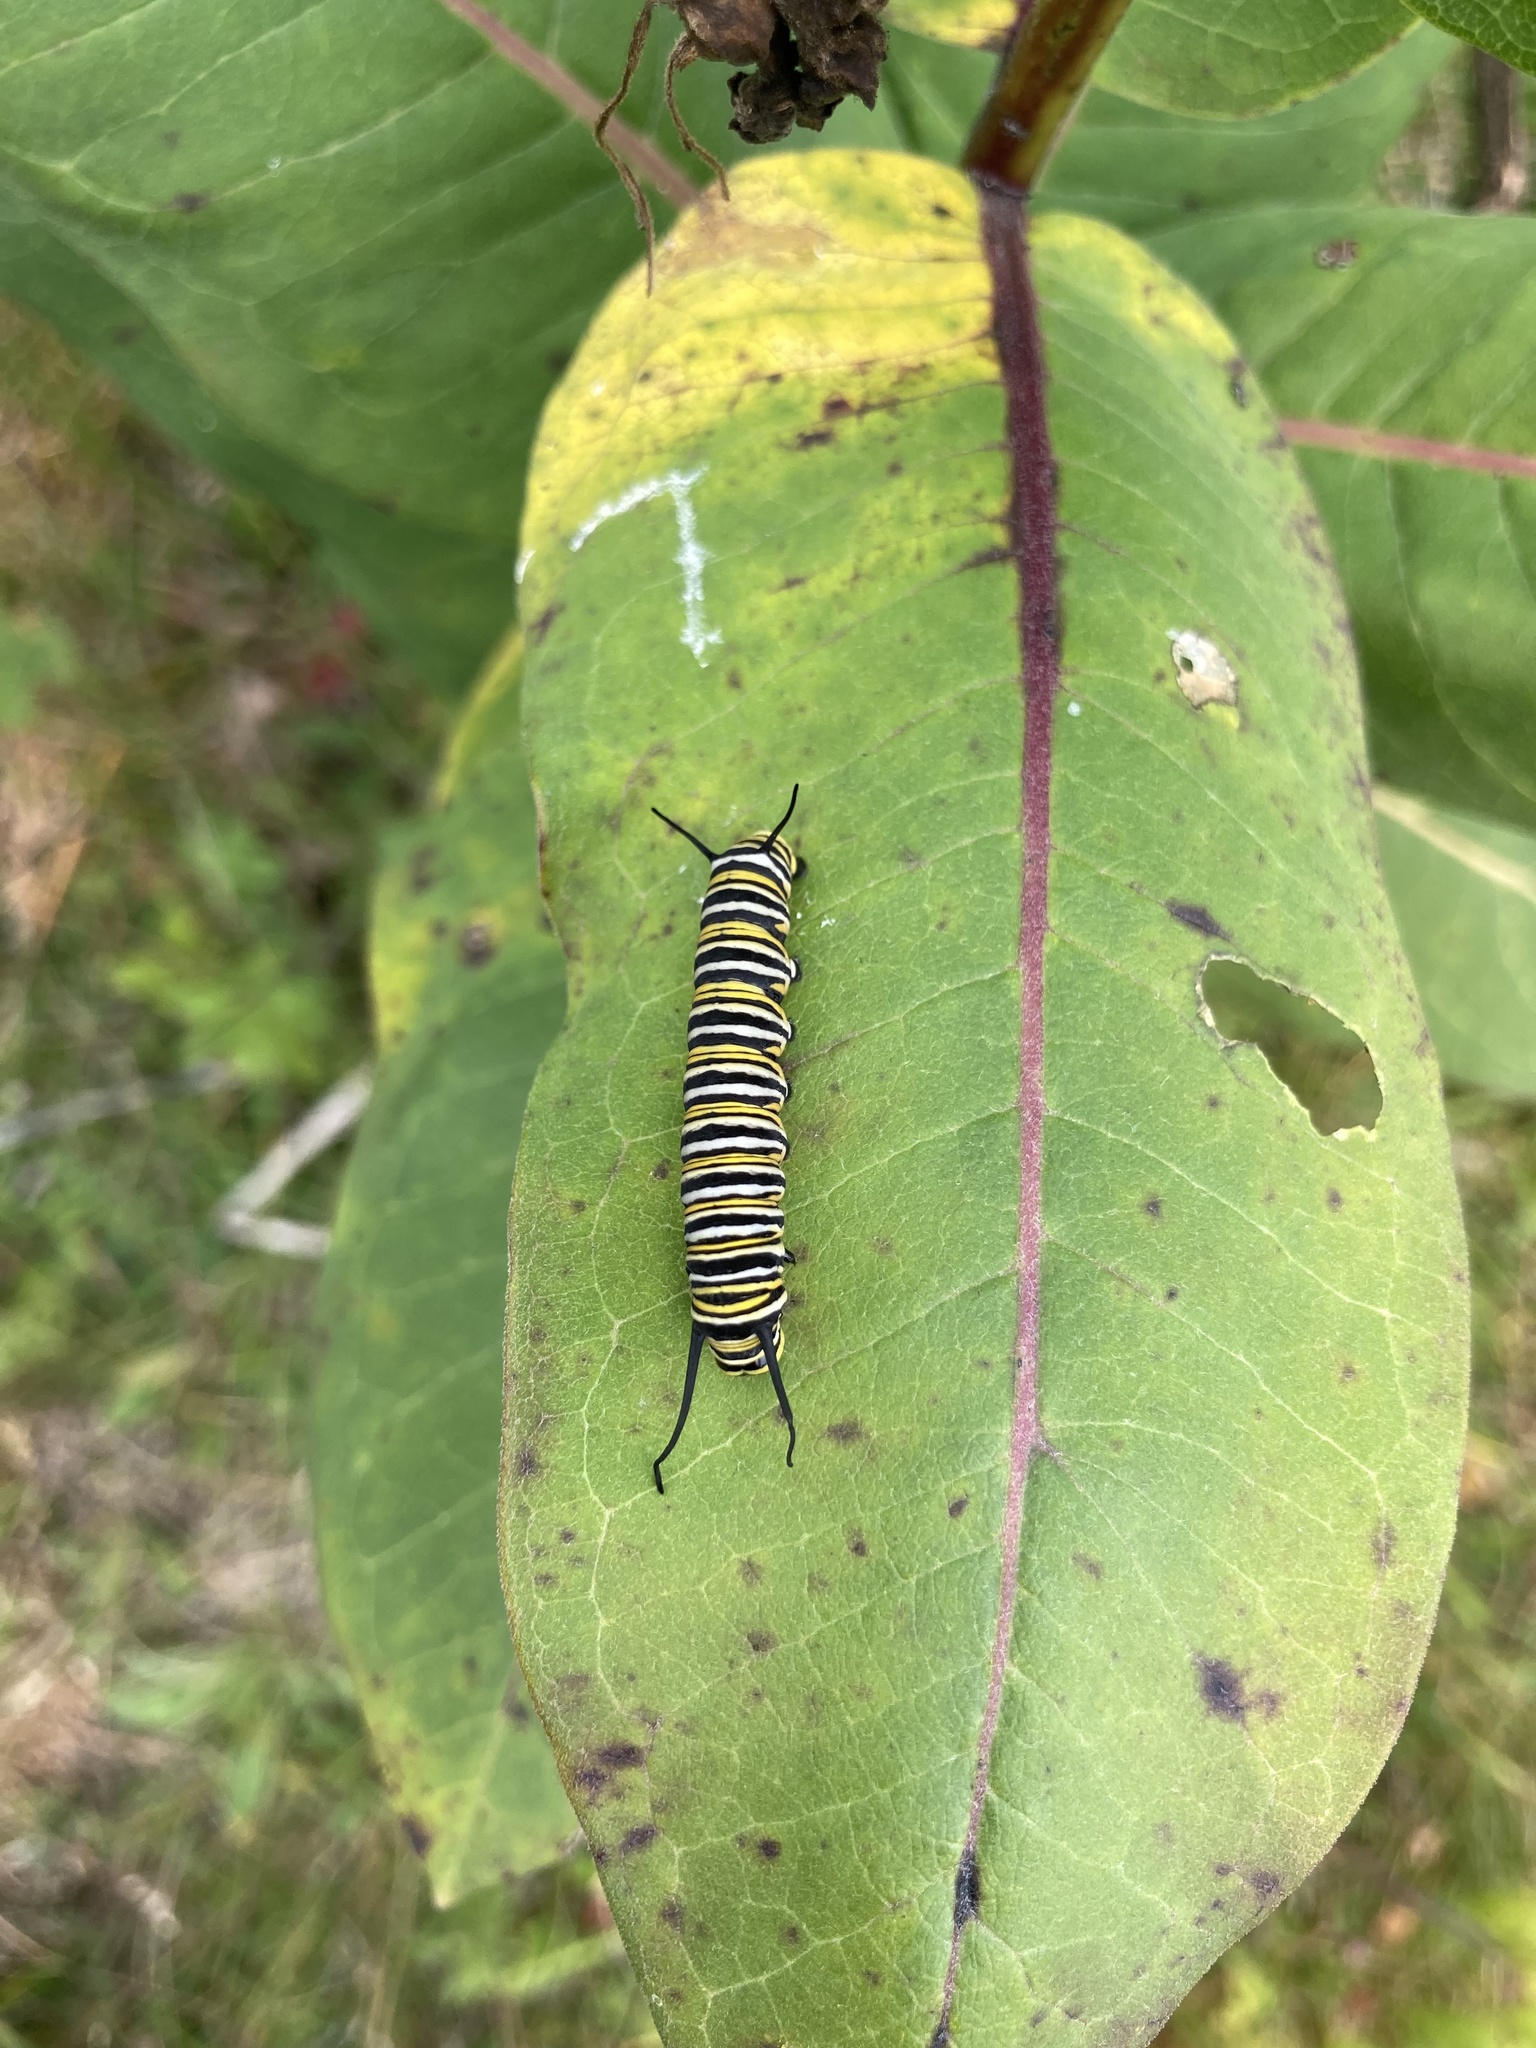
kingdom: Animalia
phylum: Arthropoda
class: Insecta
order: Lepidoptera
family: Nymphalidae
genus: Danaus
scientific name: Danaus plexippus
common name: Monarch
